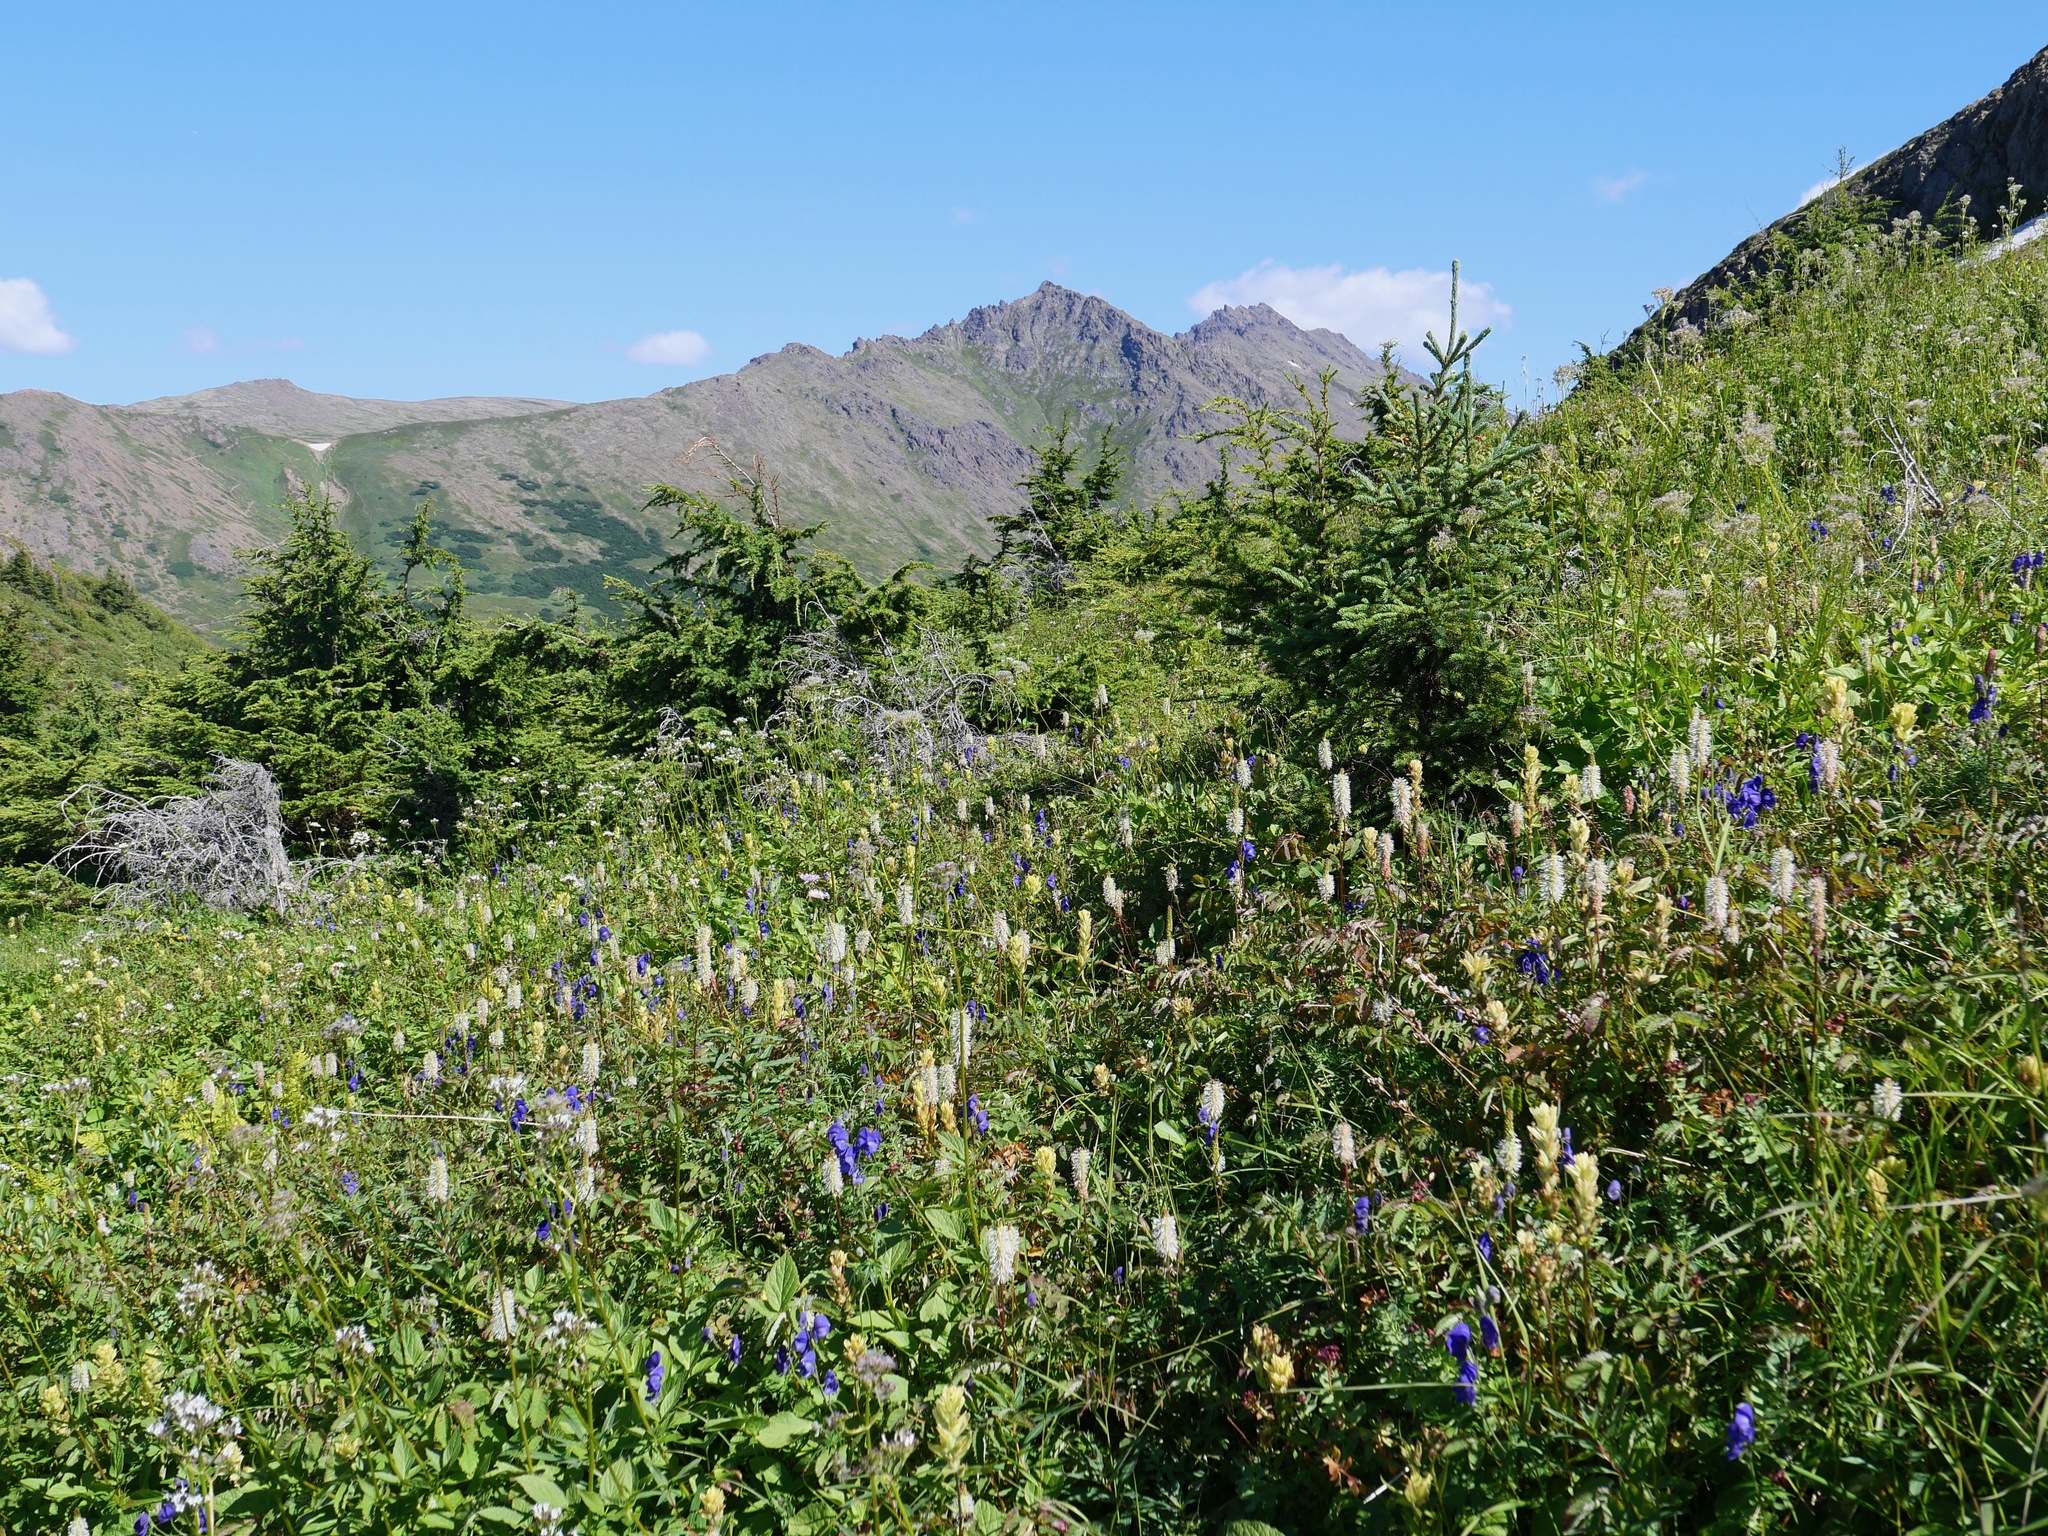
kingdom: Plantae
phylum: Tracheophyta
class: Magnoliopsida
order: Rosales
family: Rosaceae
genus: Sanguisorba
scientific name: Sanguisorba stipulata
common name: Sitka burnet
